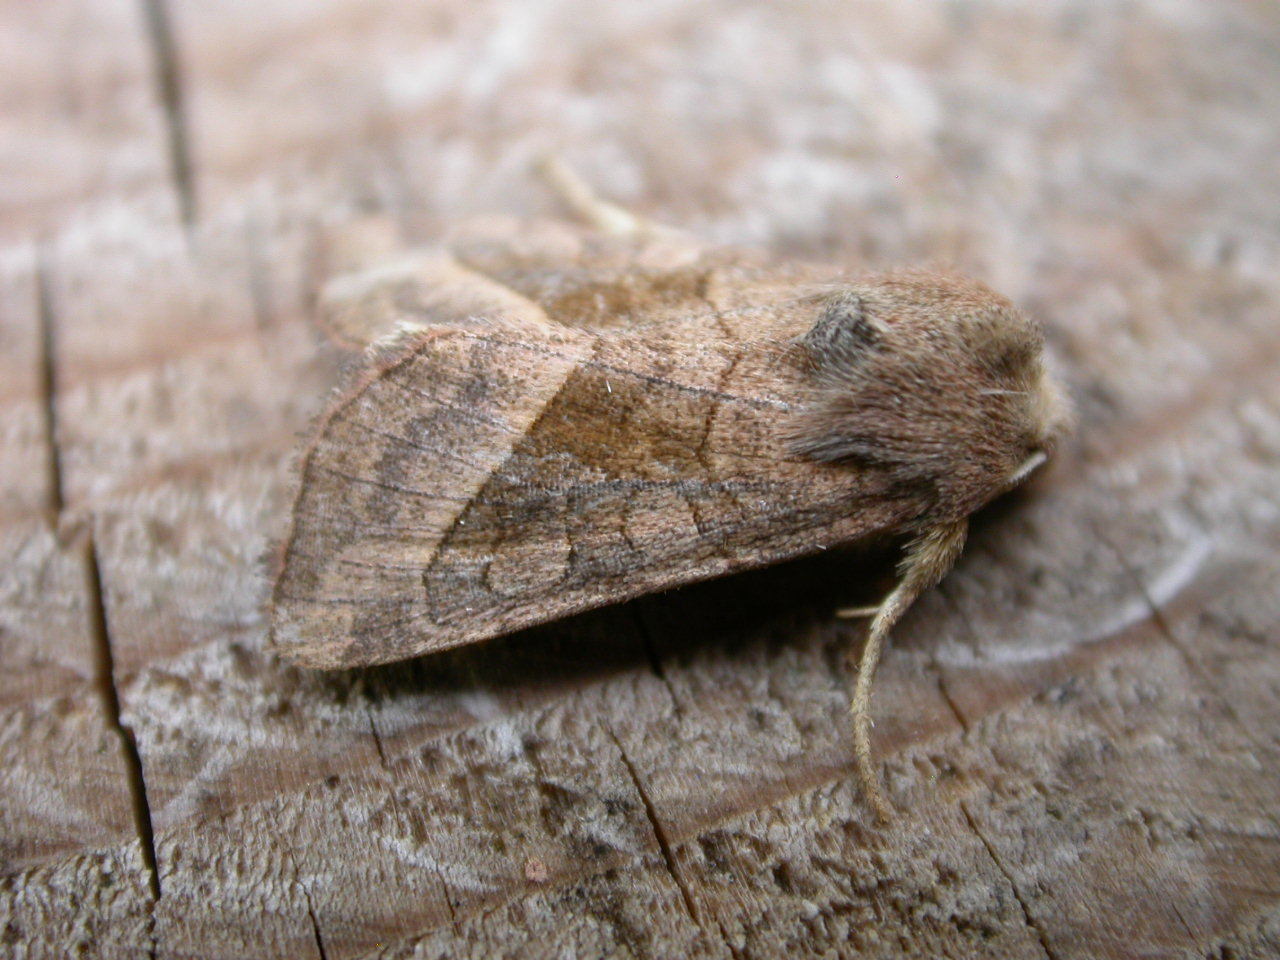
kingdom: Animalia
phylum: Arthropoda
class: Insecta
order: Lepidoptera
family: Noctuidae
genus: Hydraecia
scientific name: Hydraecia micacea
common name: Rosy rustic
